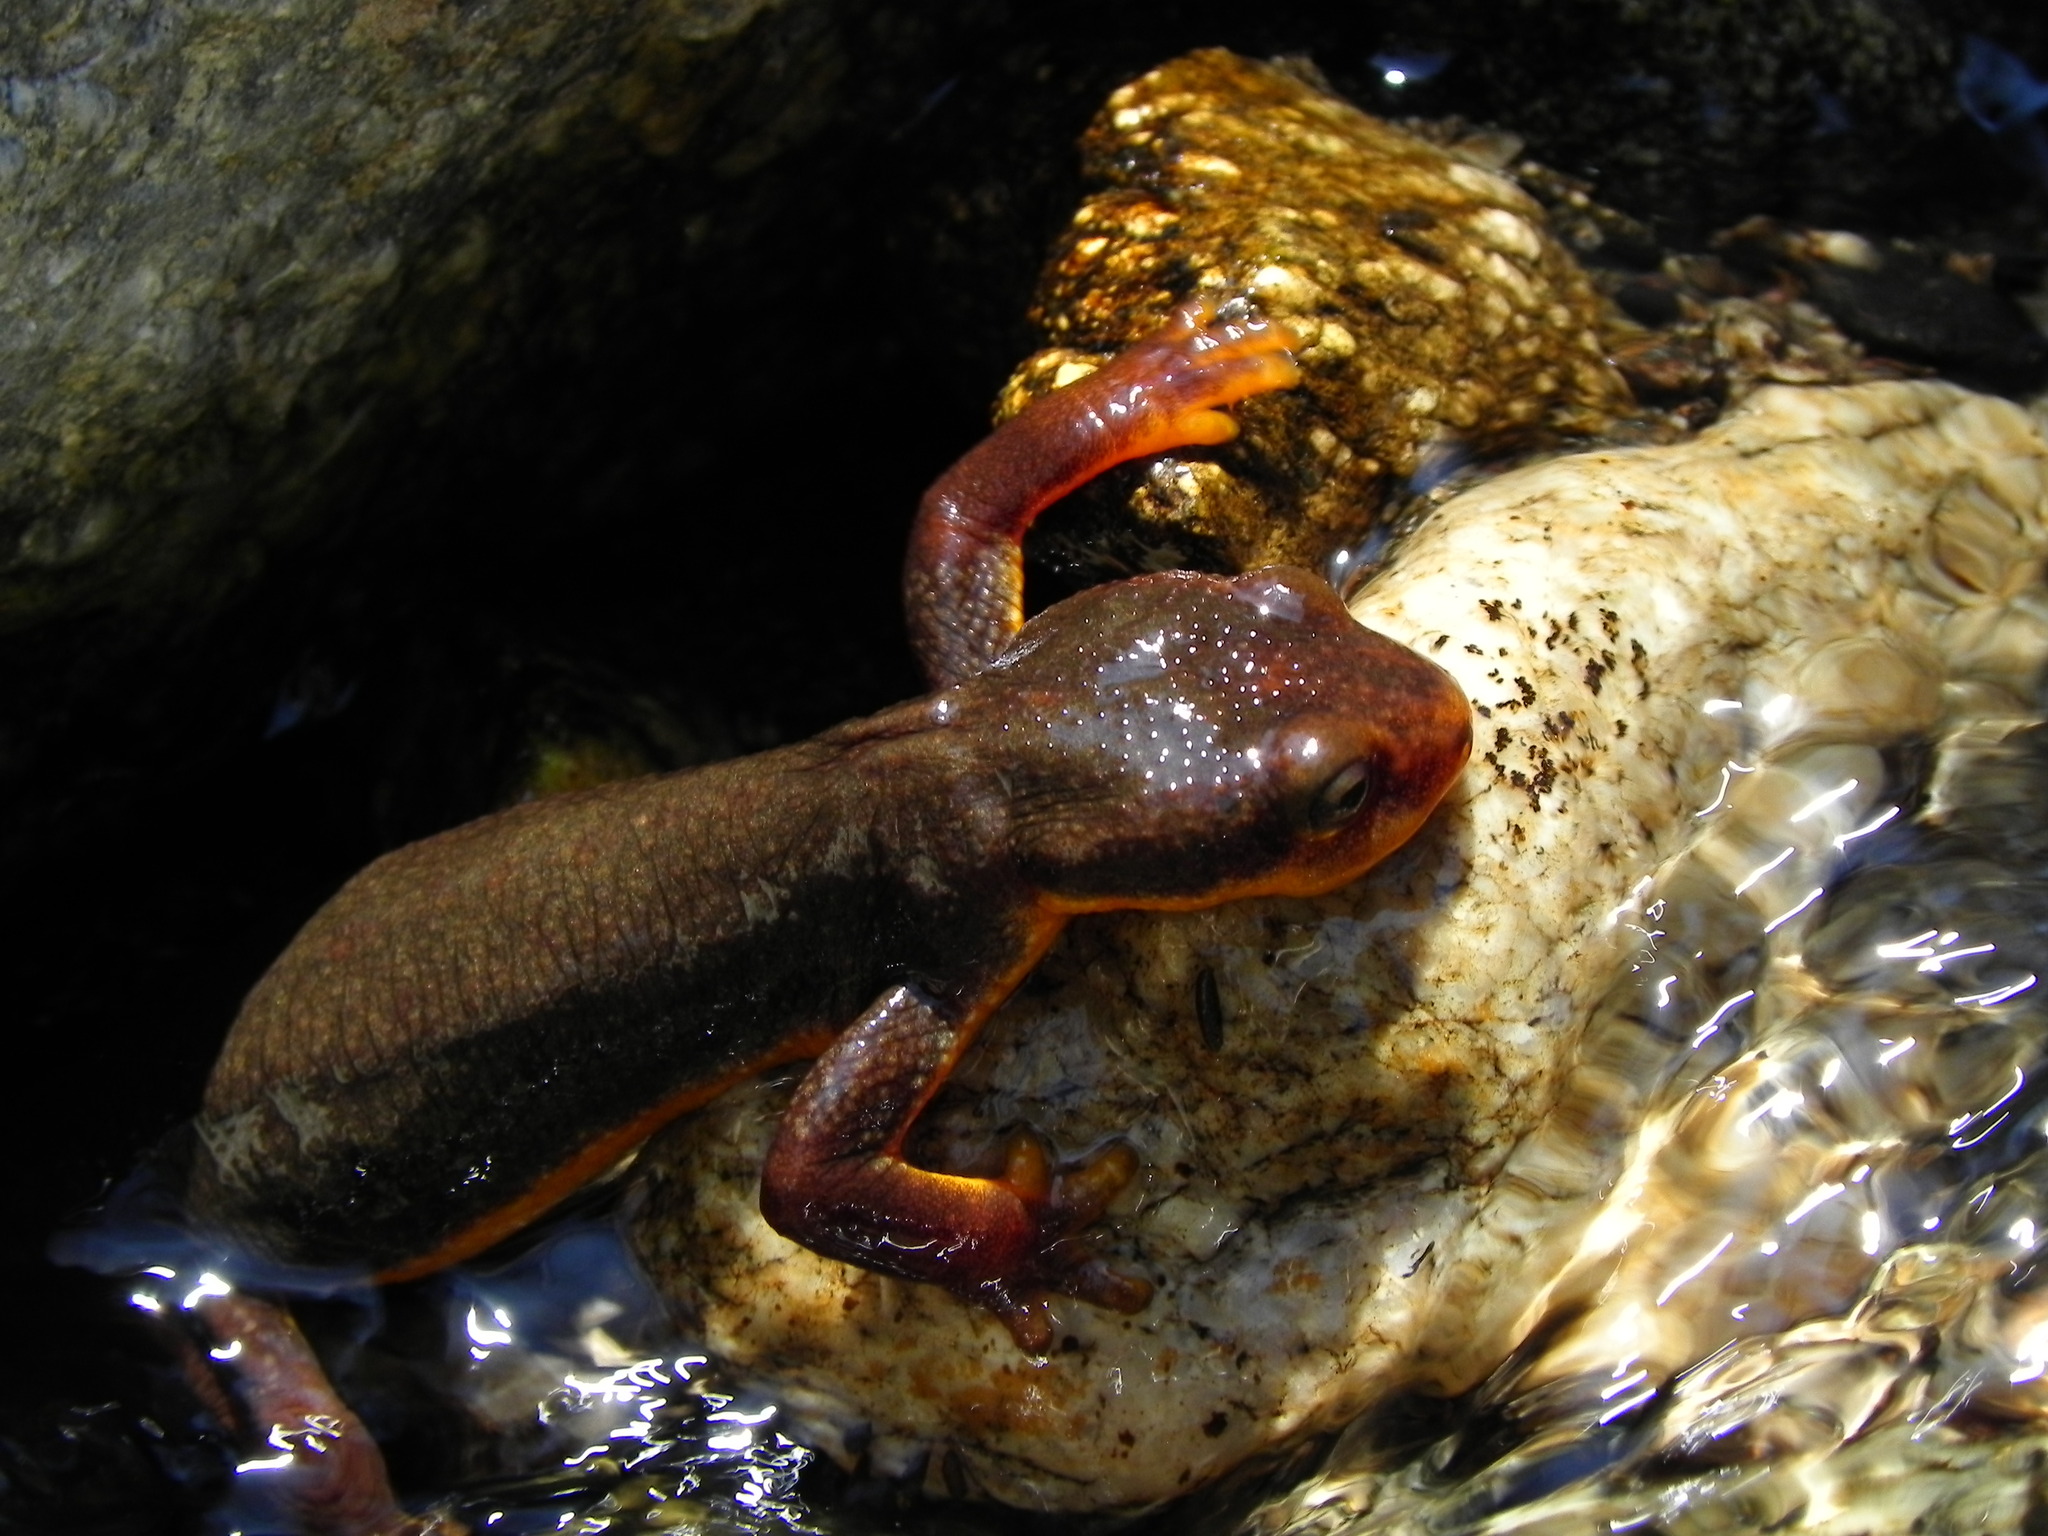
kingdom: Animalia
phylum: Chordata
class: Amphibia
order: Caudata
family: Salamandridae
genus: Taricha
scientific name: Taricha torosa
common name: California newt
